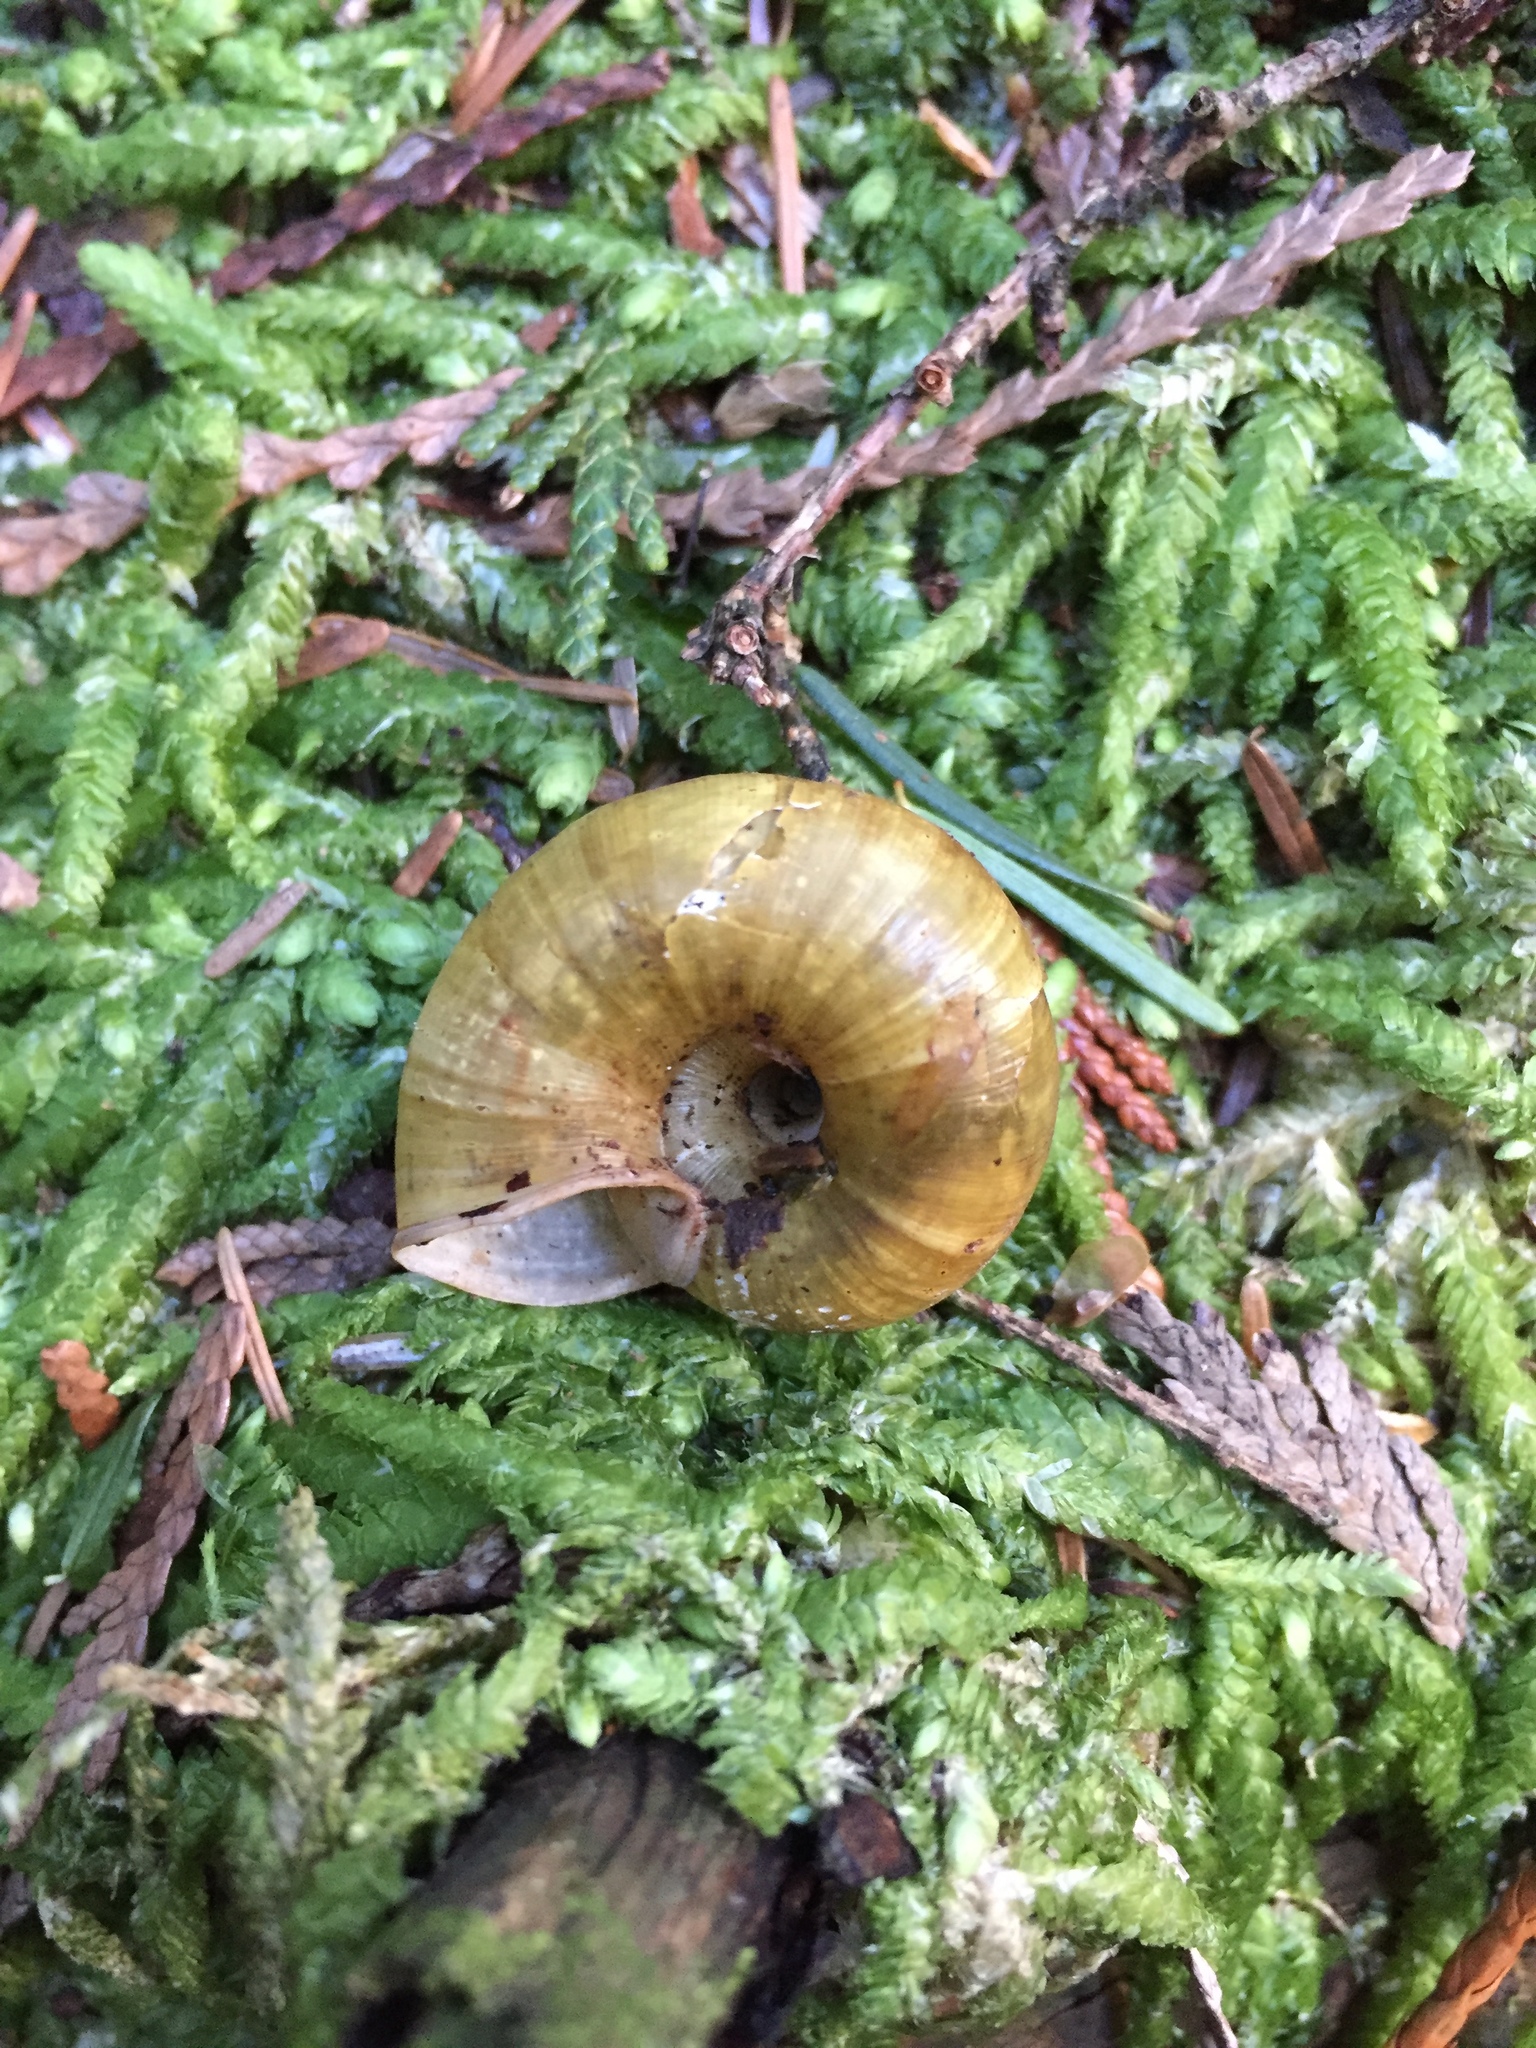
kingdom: Animalia
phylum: Mollusca
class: Gastropoda
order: Stylommatophora
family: Haplotrematidae
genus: Haplotrema
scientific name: Haplotrema vancouverense
